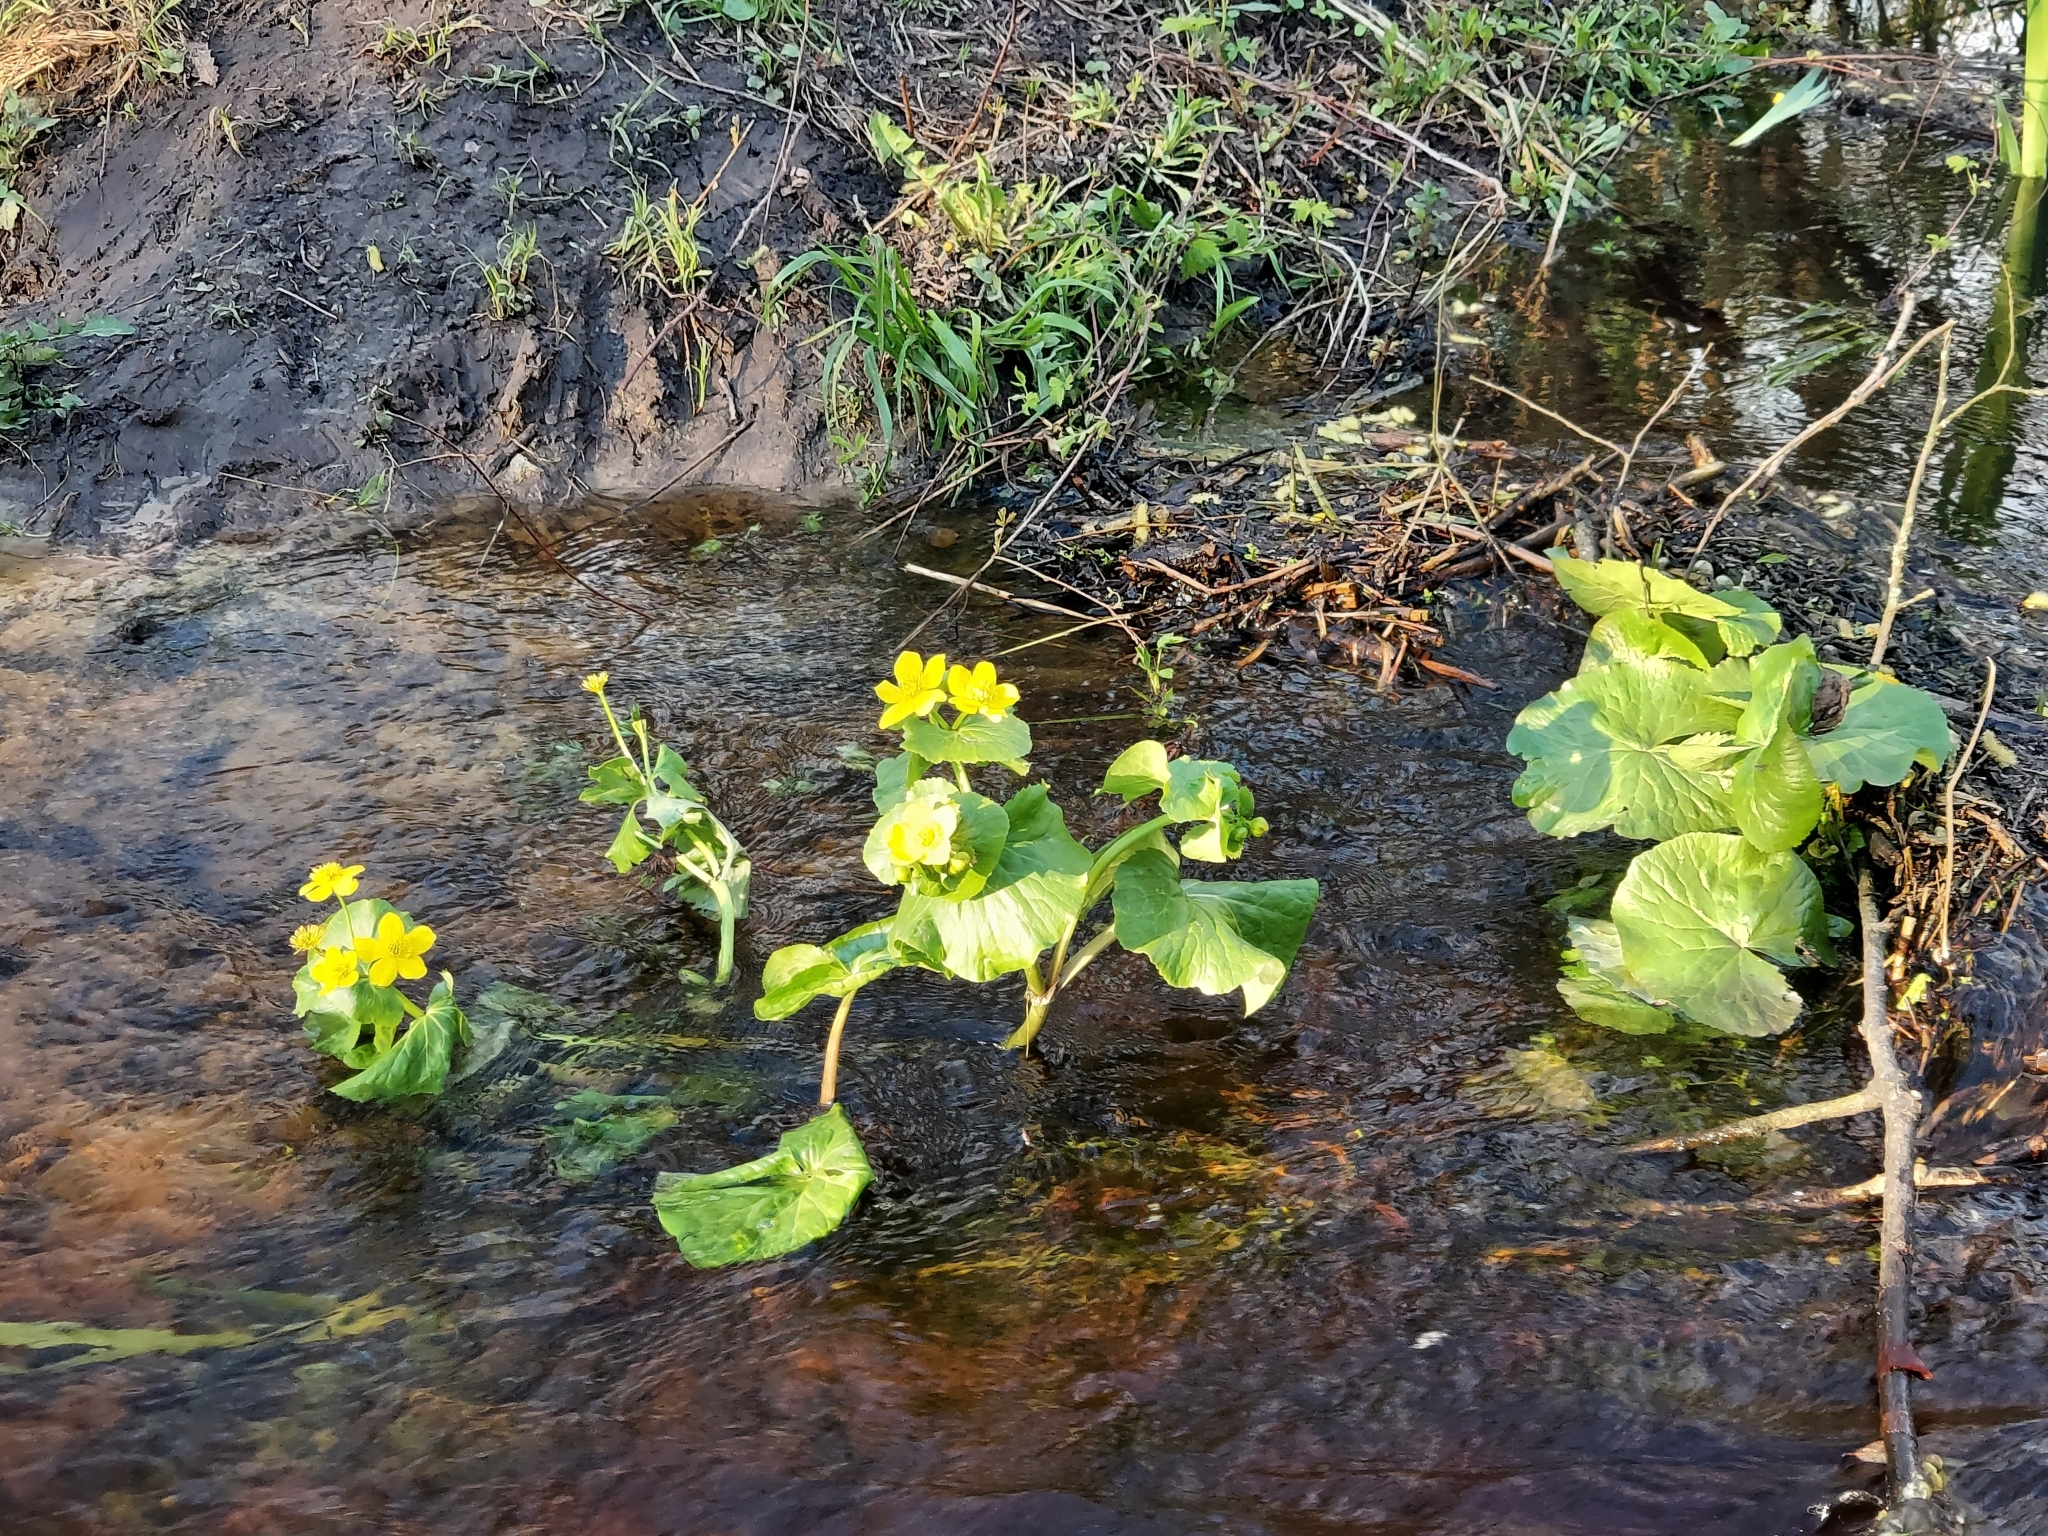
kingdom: Plantae
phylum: Tracheophyta
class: Magnoliopsida
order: Ranunculales
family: Ranunculaceae
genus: Caltha
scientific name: Caltha palustris
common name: Marsh marigold
